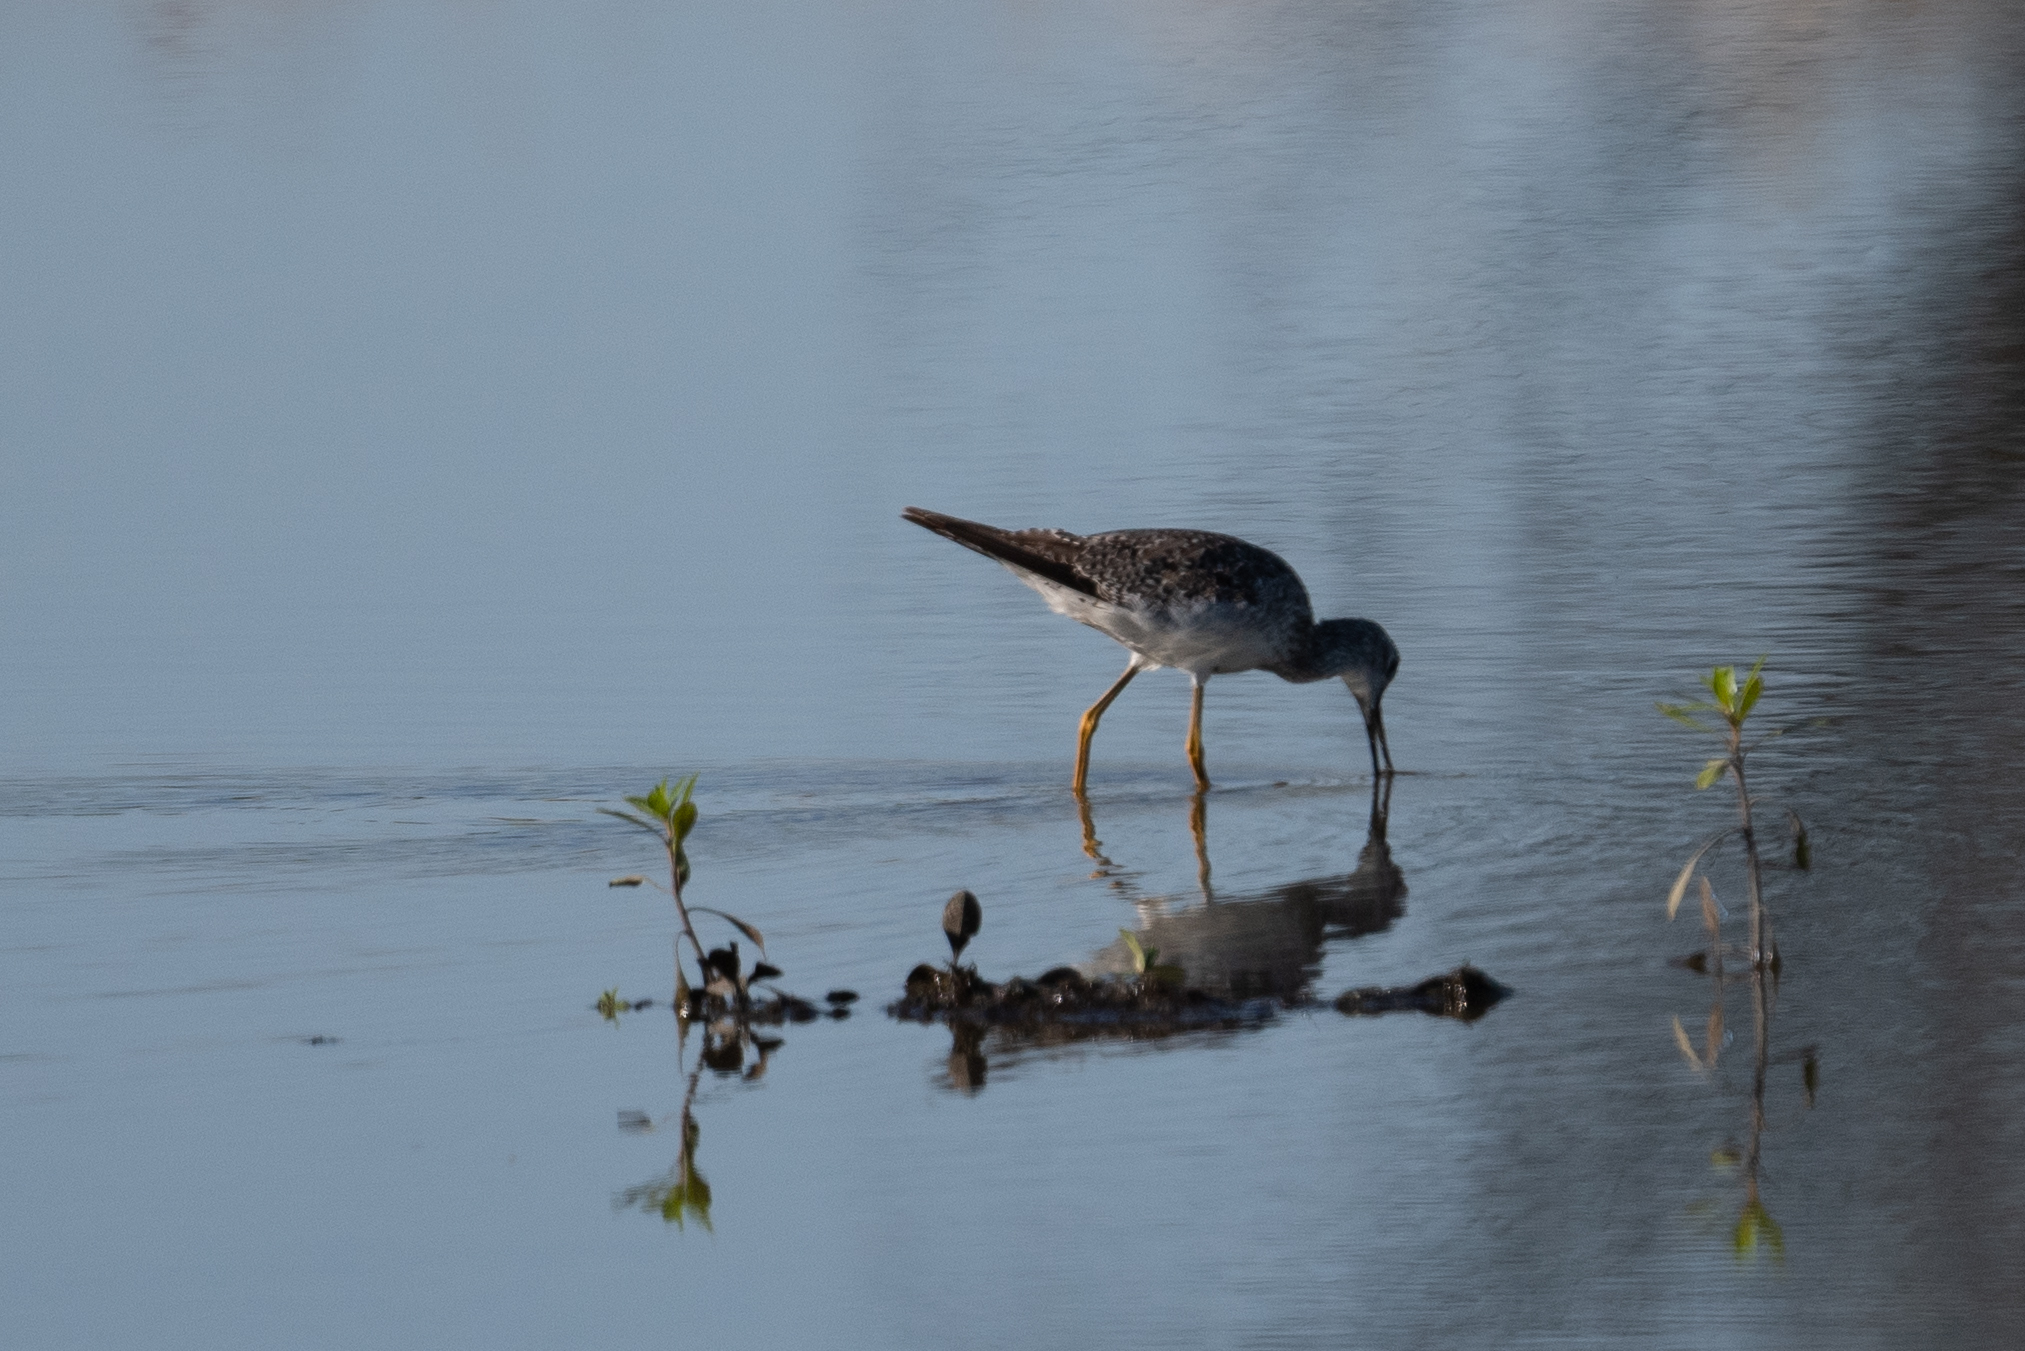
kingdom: Animalia
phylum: Chordata
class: Aves
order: Charadriiformes
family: Scolopacidae
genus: Tringa
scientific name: Tringa melanoleuca
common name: Greater yellowlegs
